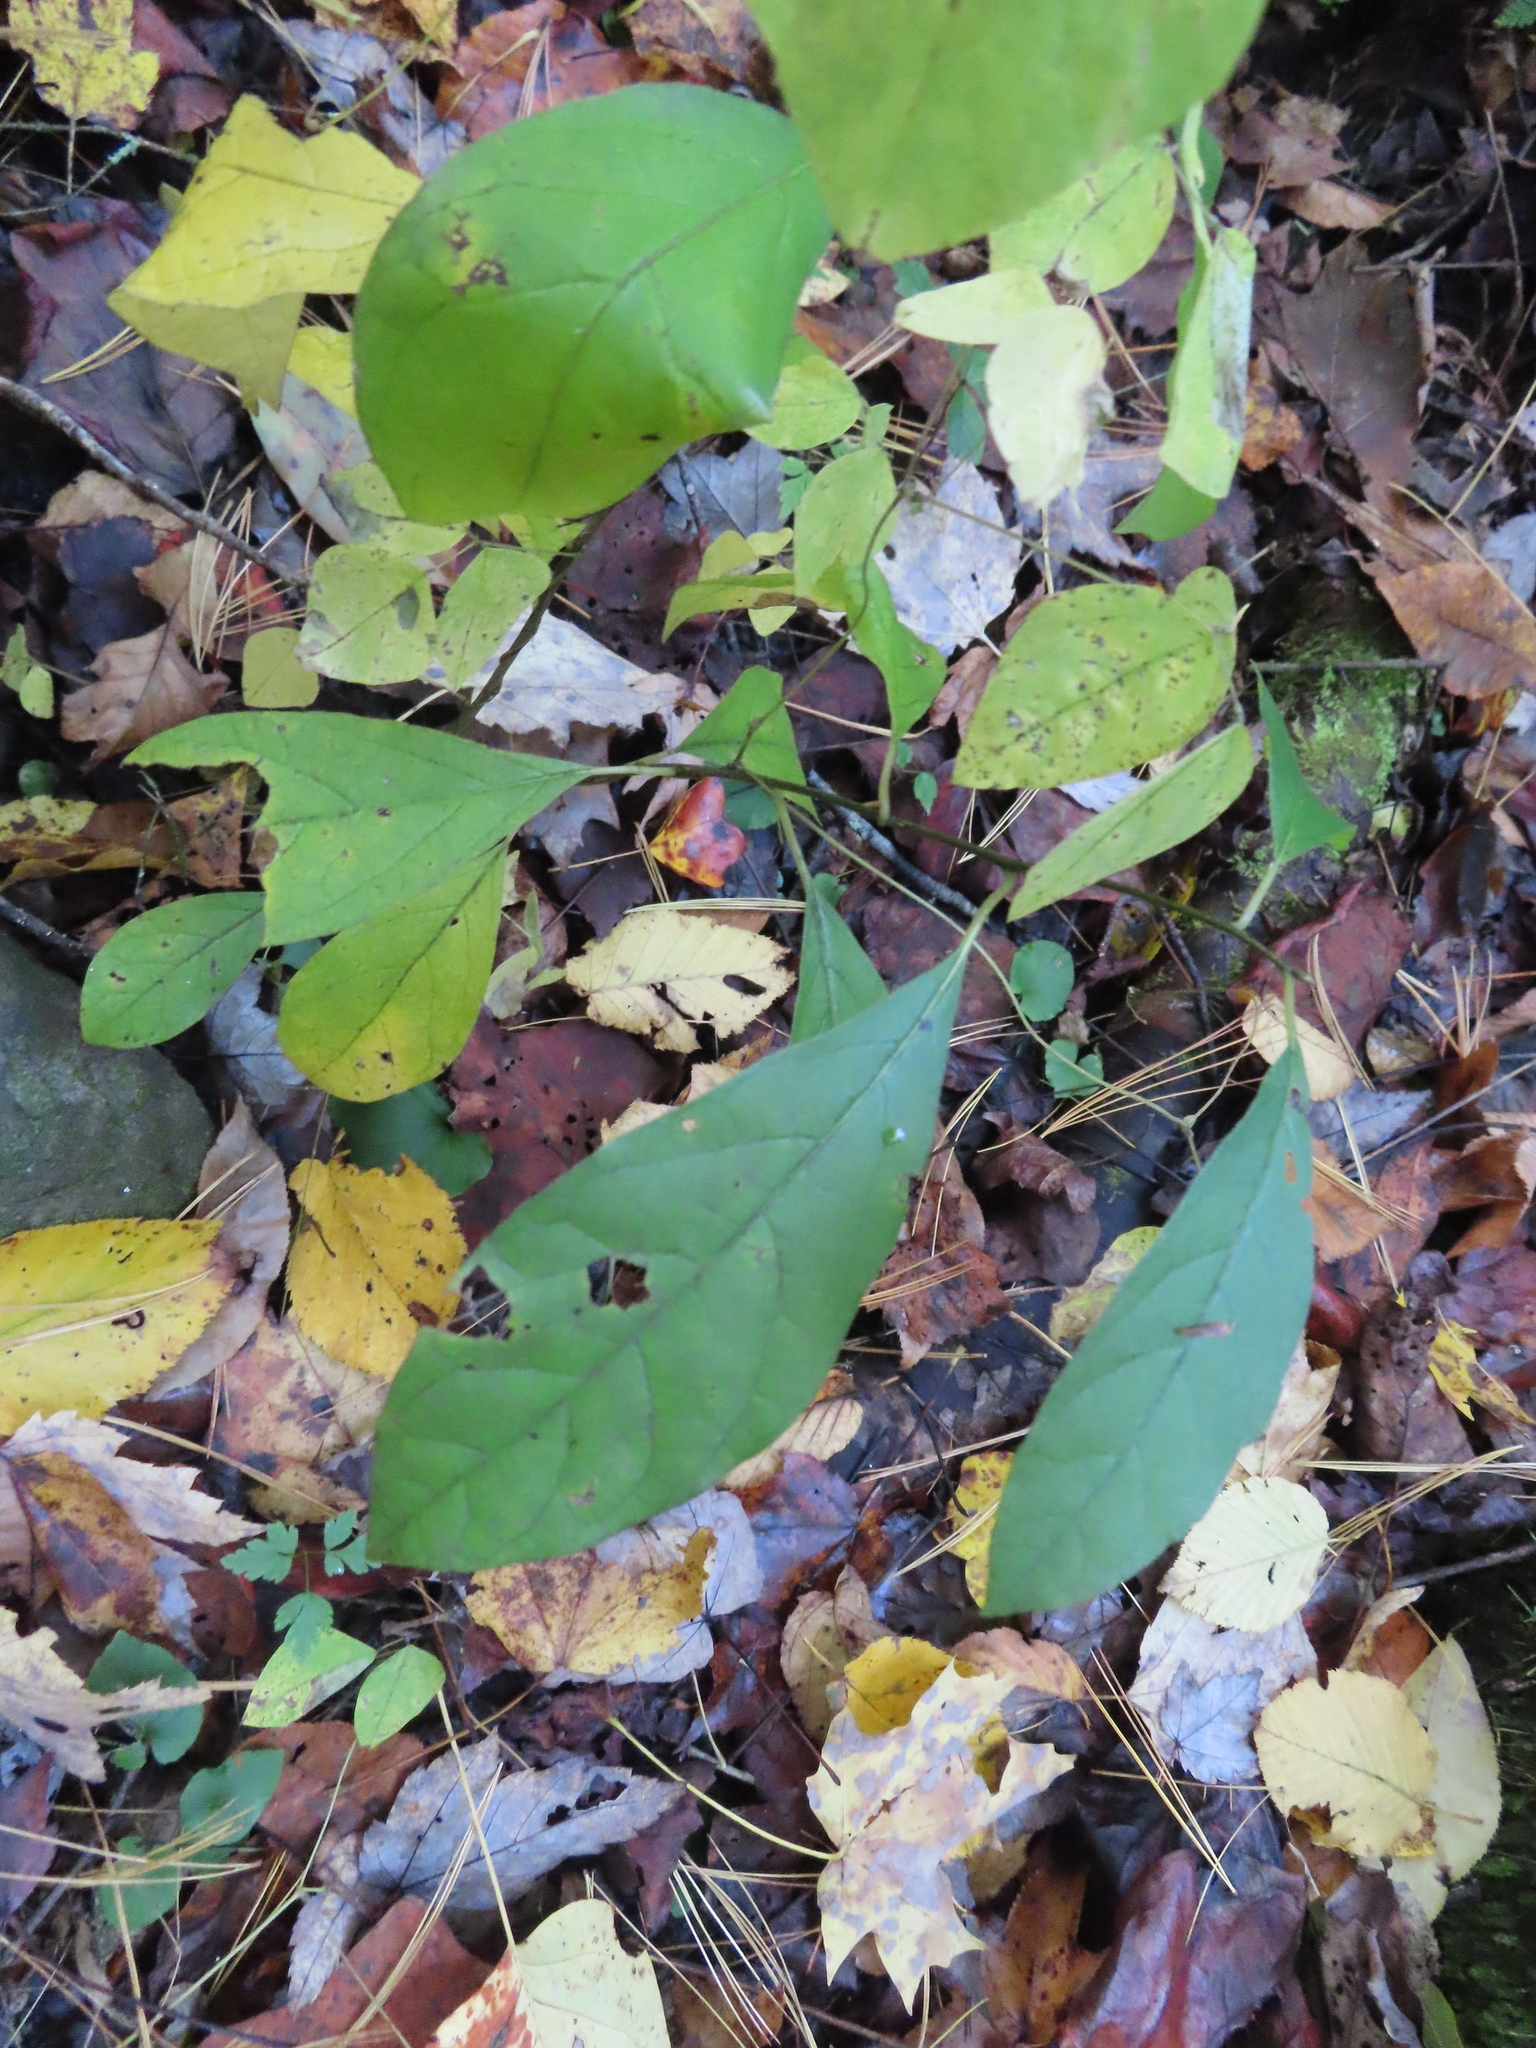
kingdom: Plantae
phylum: Tracheophyta
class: Magnoliopsida
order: Laurales
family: Lauraceae
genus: Lindera
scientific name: Lindera benzoin
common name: Spicebush
